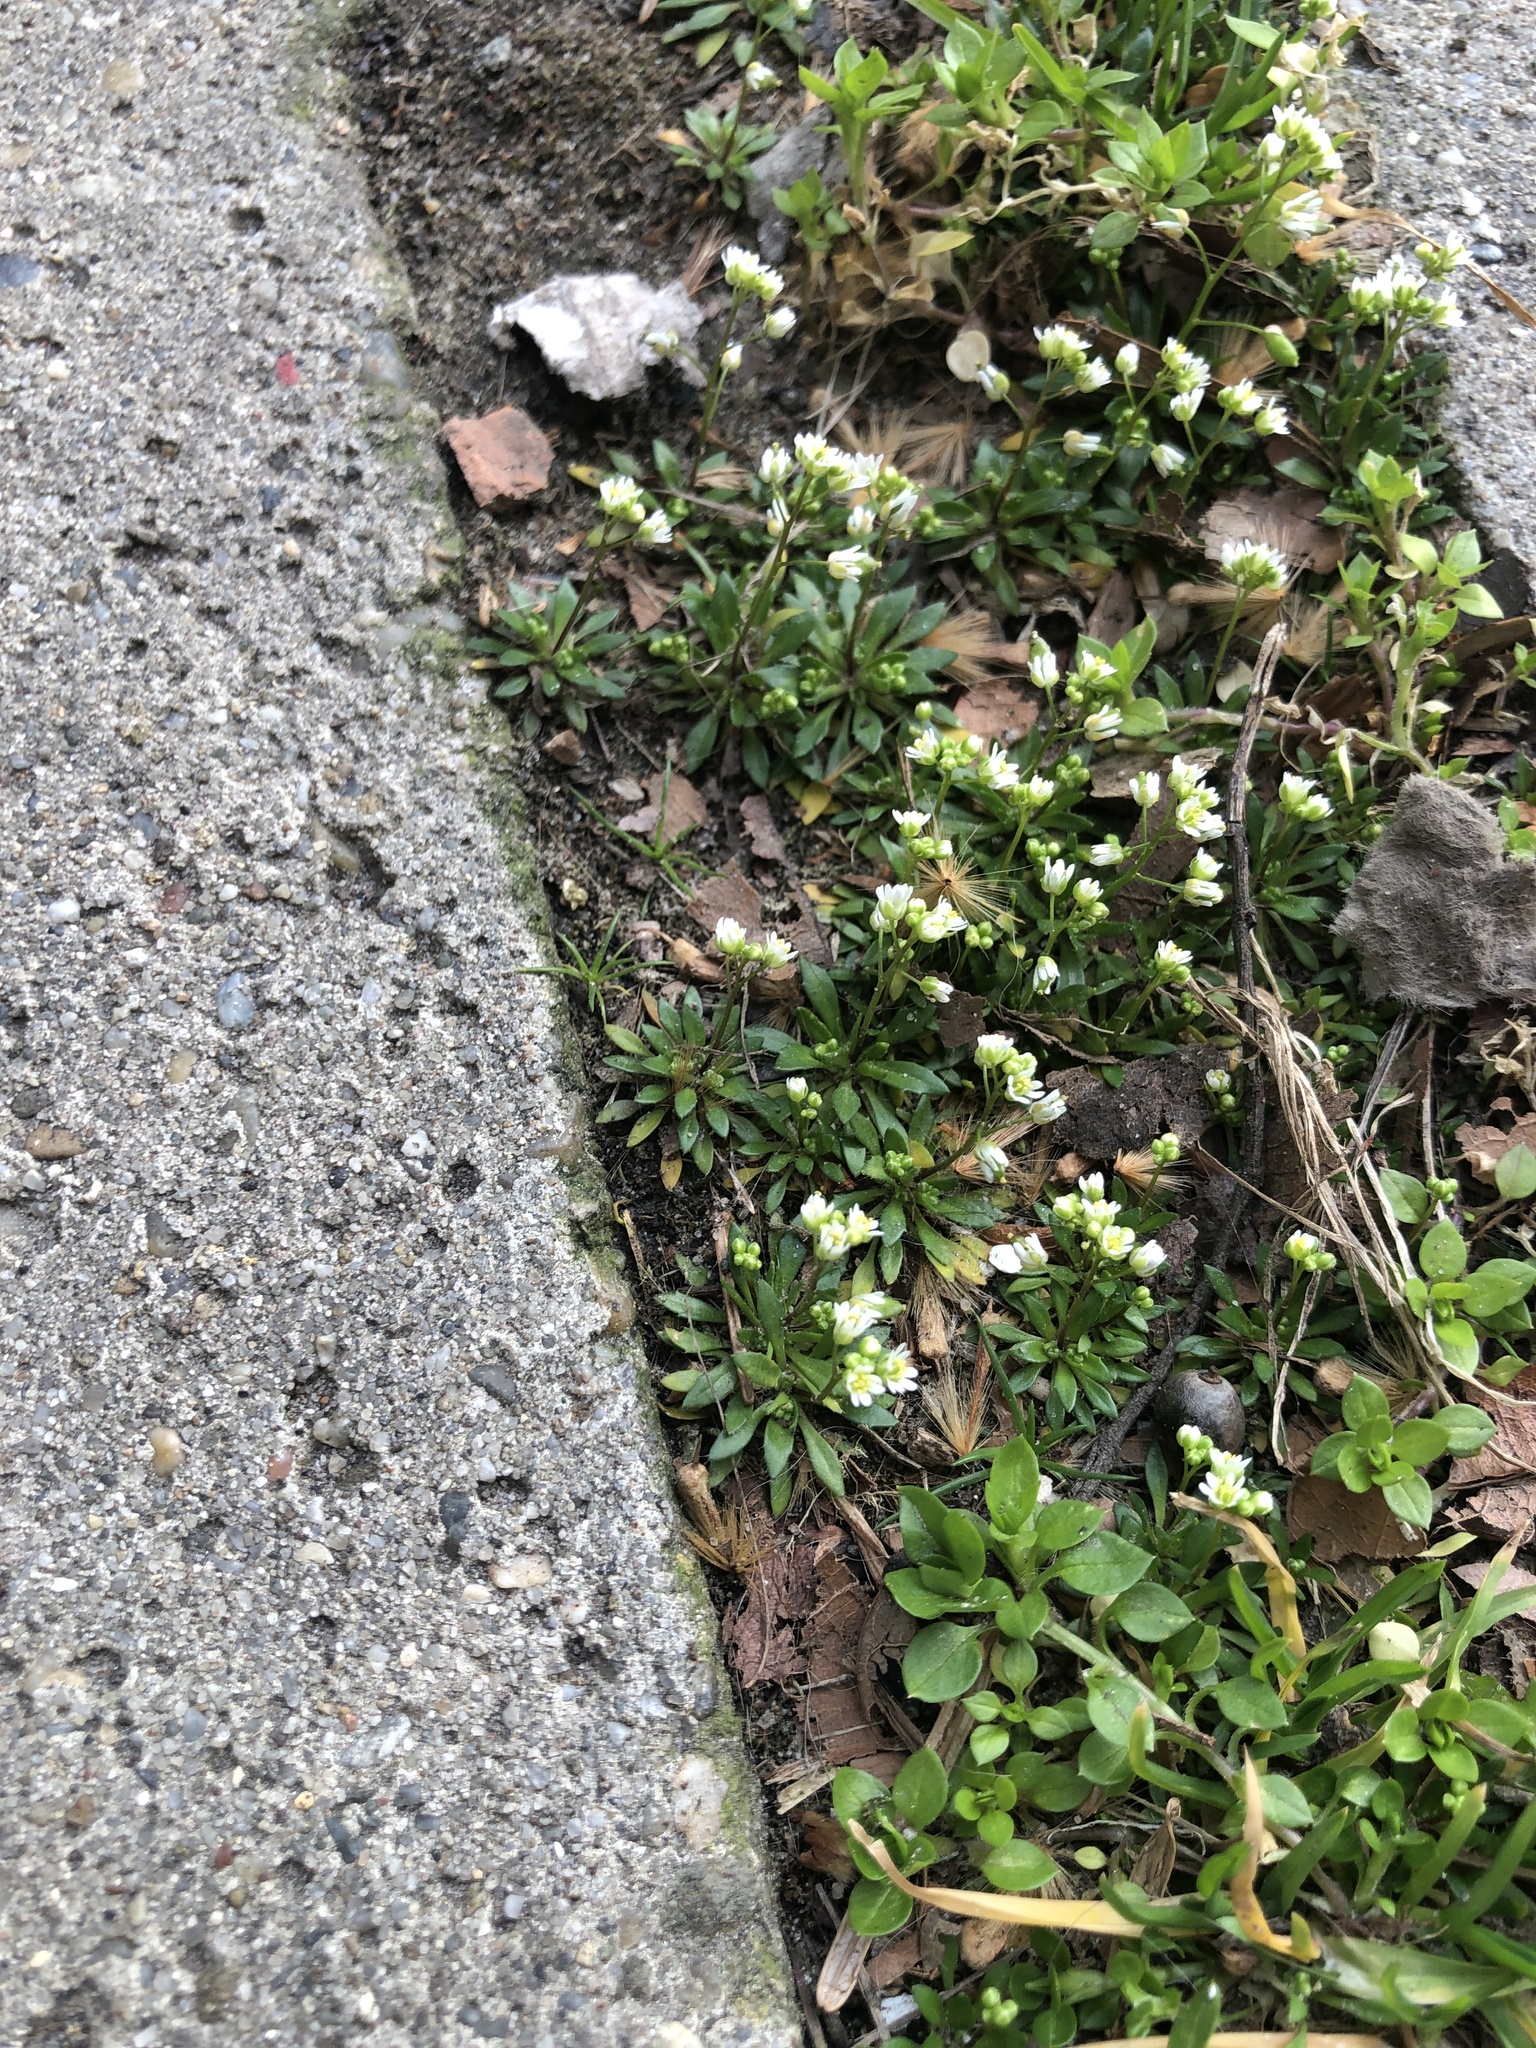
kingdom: Plantae
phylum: Tracheophyta
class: Magnoliopsida
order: Brassicales
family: Brassicaceae
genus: Draba
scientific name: Draba verna
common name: Spring draba
